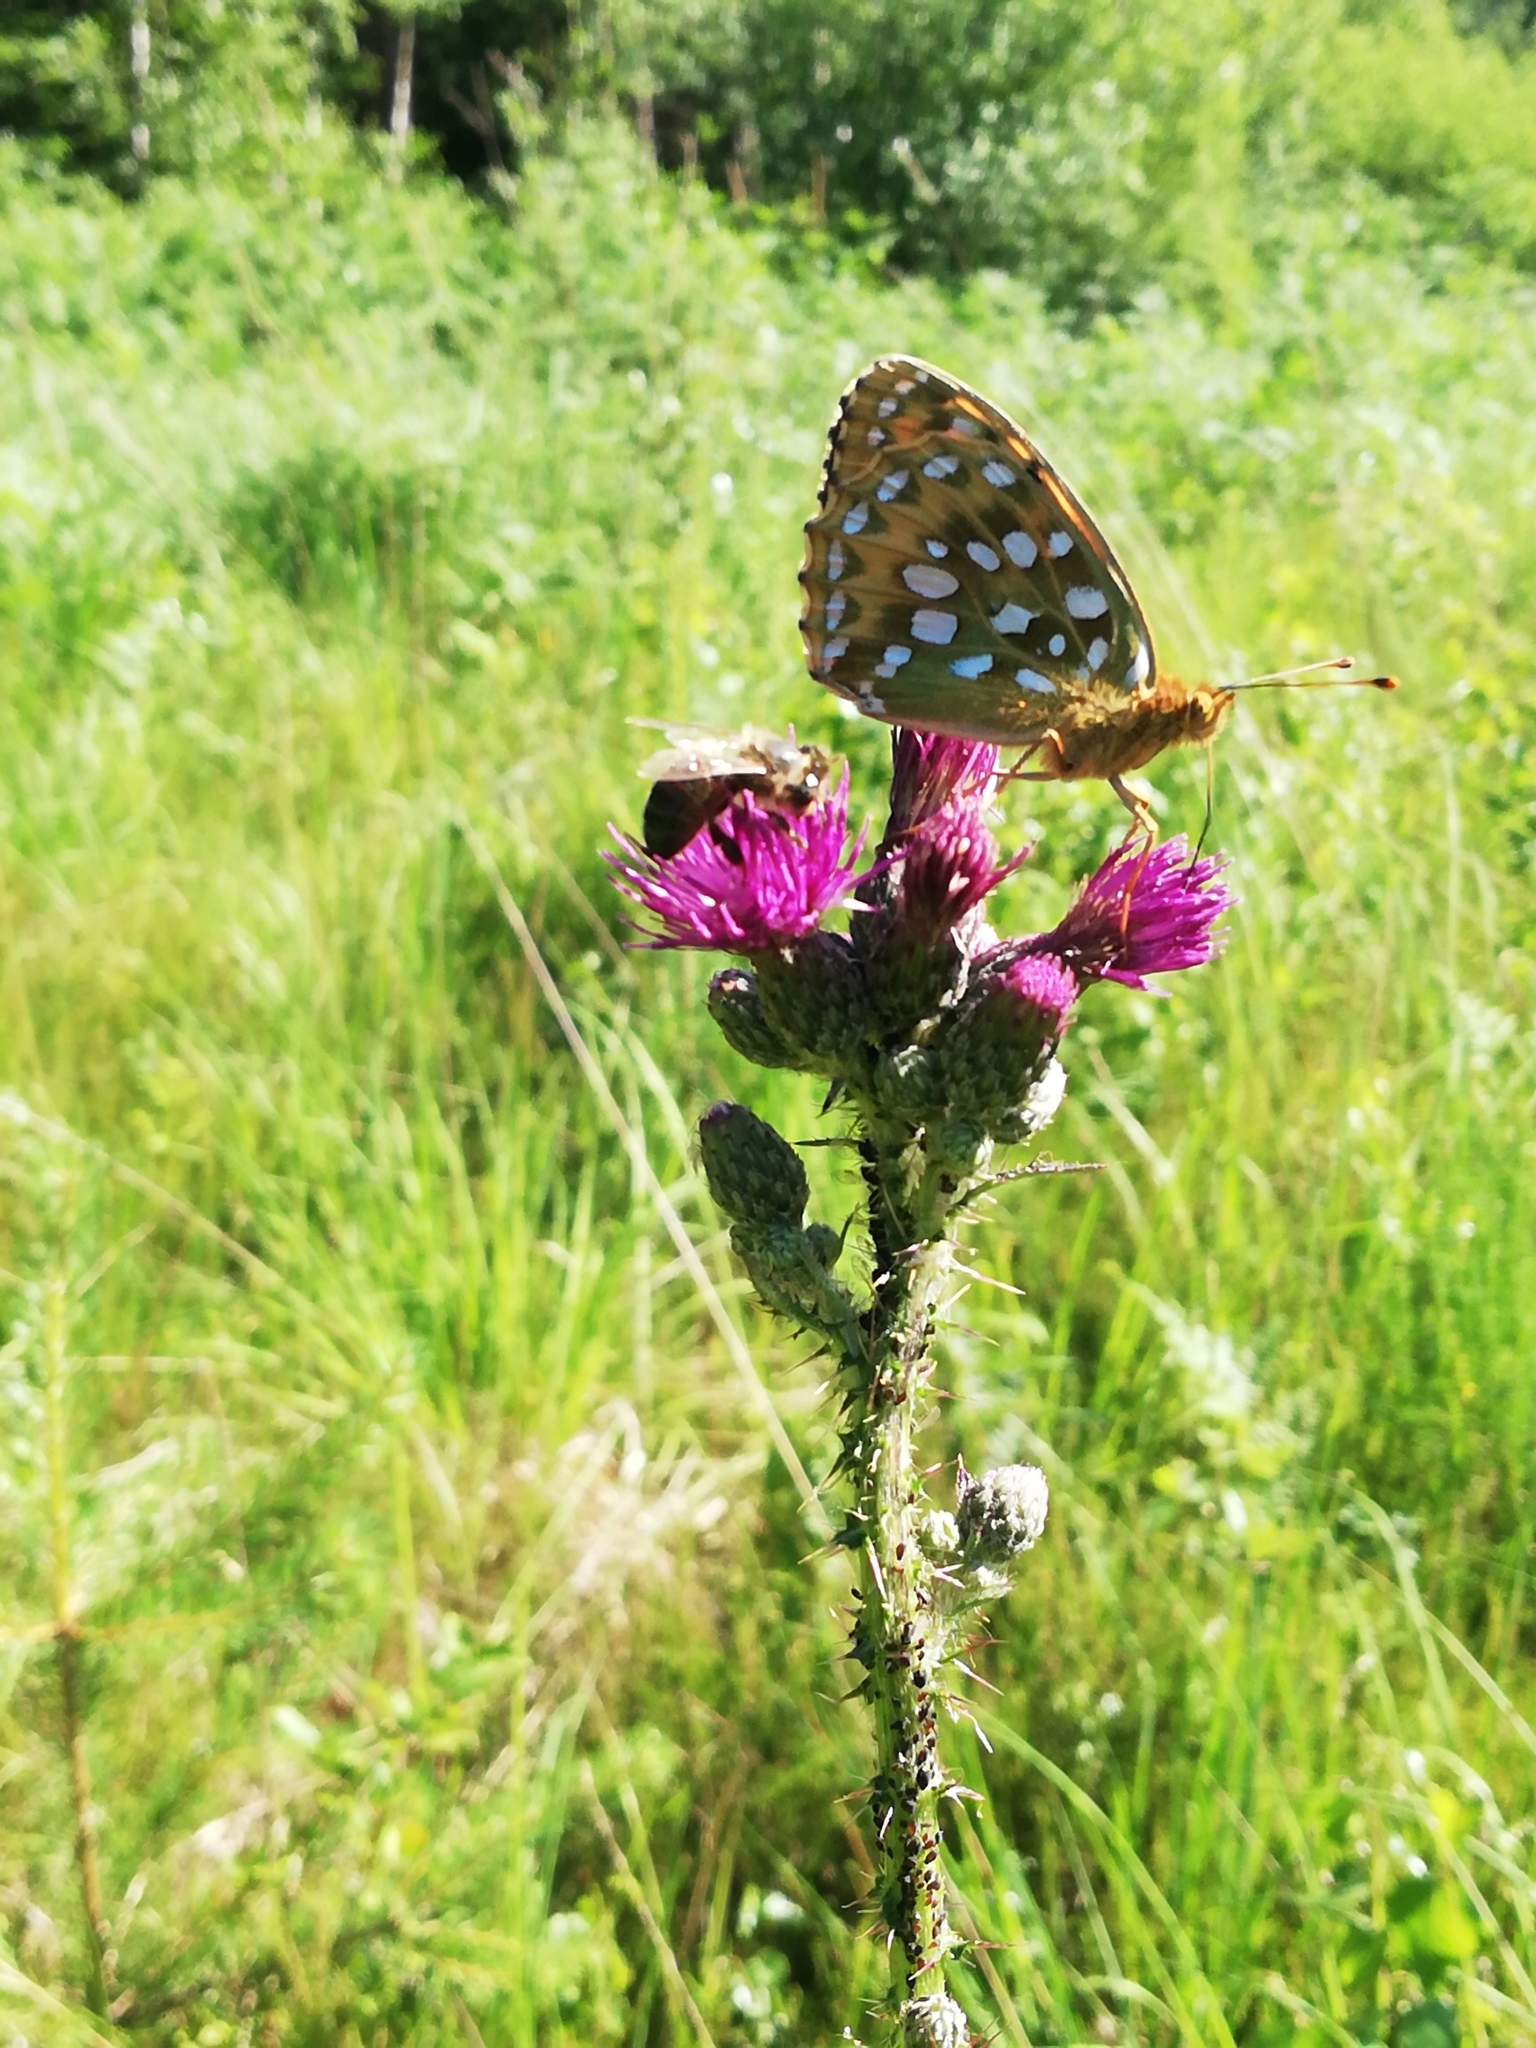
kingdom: Animalia
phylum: Arthropoda
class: Insecta
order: Lepidoptera
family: Nymphalidae
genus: Speyeria
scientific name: Speyeria aglaja
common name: Dark green fritillary
